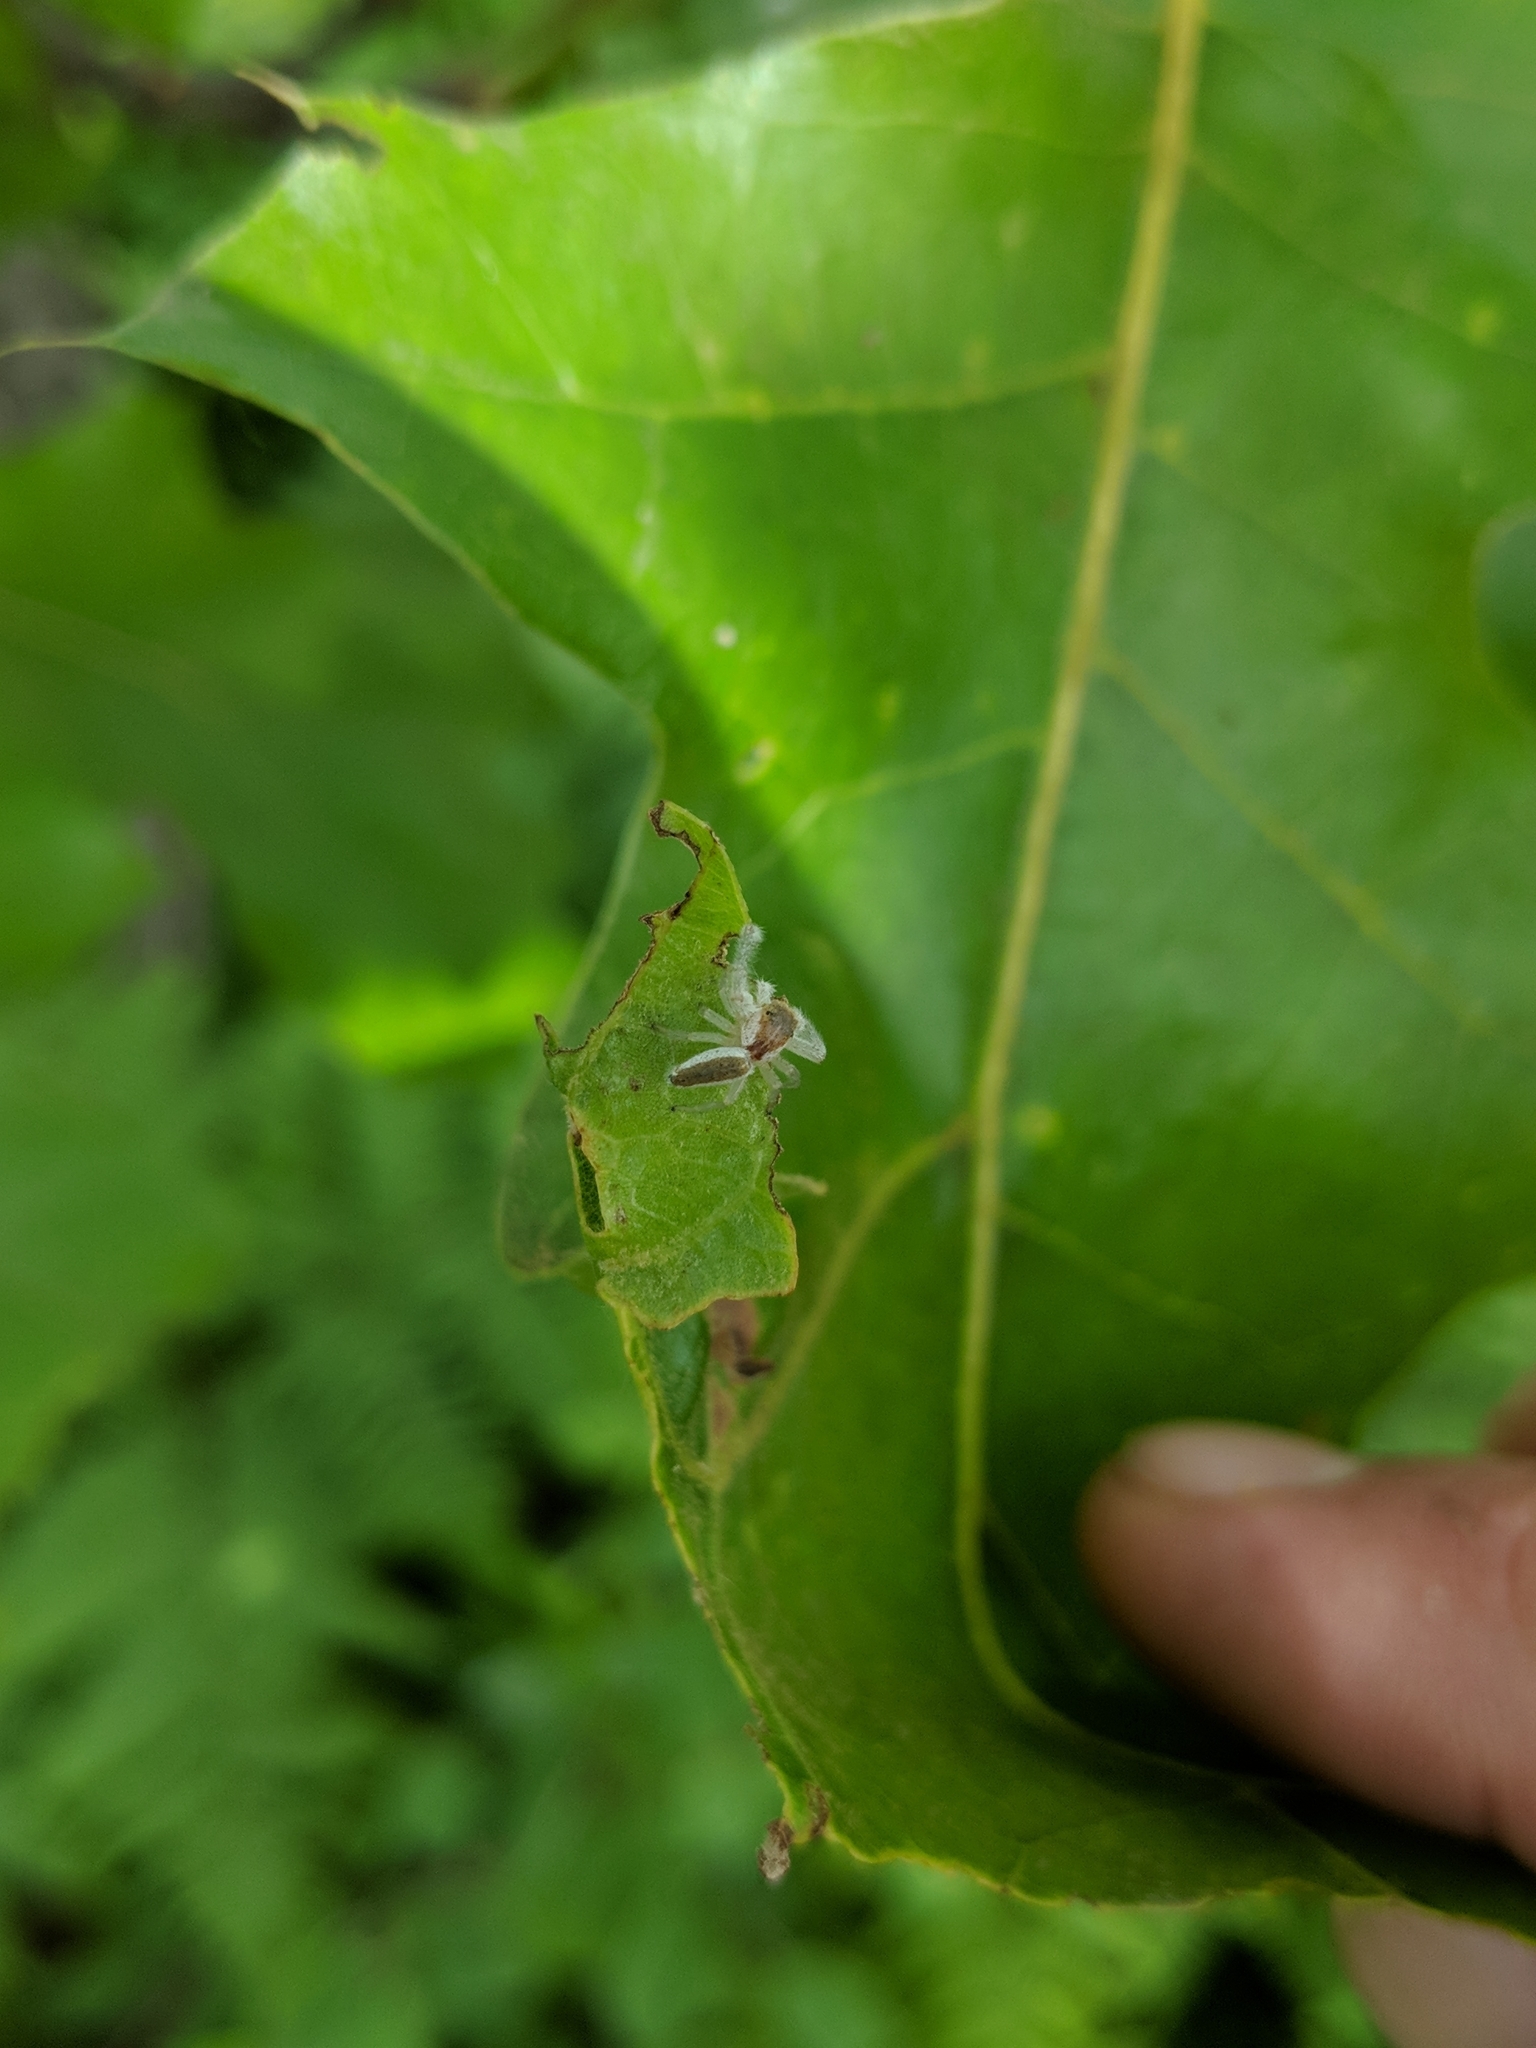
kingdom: Animalia
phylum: Arthropoda
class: Arachnida
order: Araneae
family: Salticidae
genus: Hentzia
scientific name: Hentzia mitrata
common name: White-jawed jumping spider
